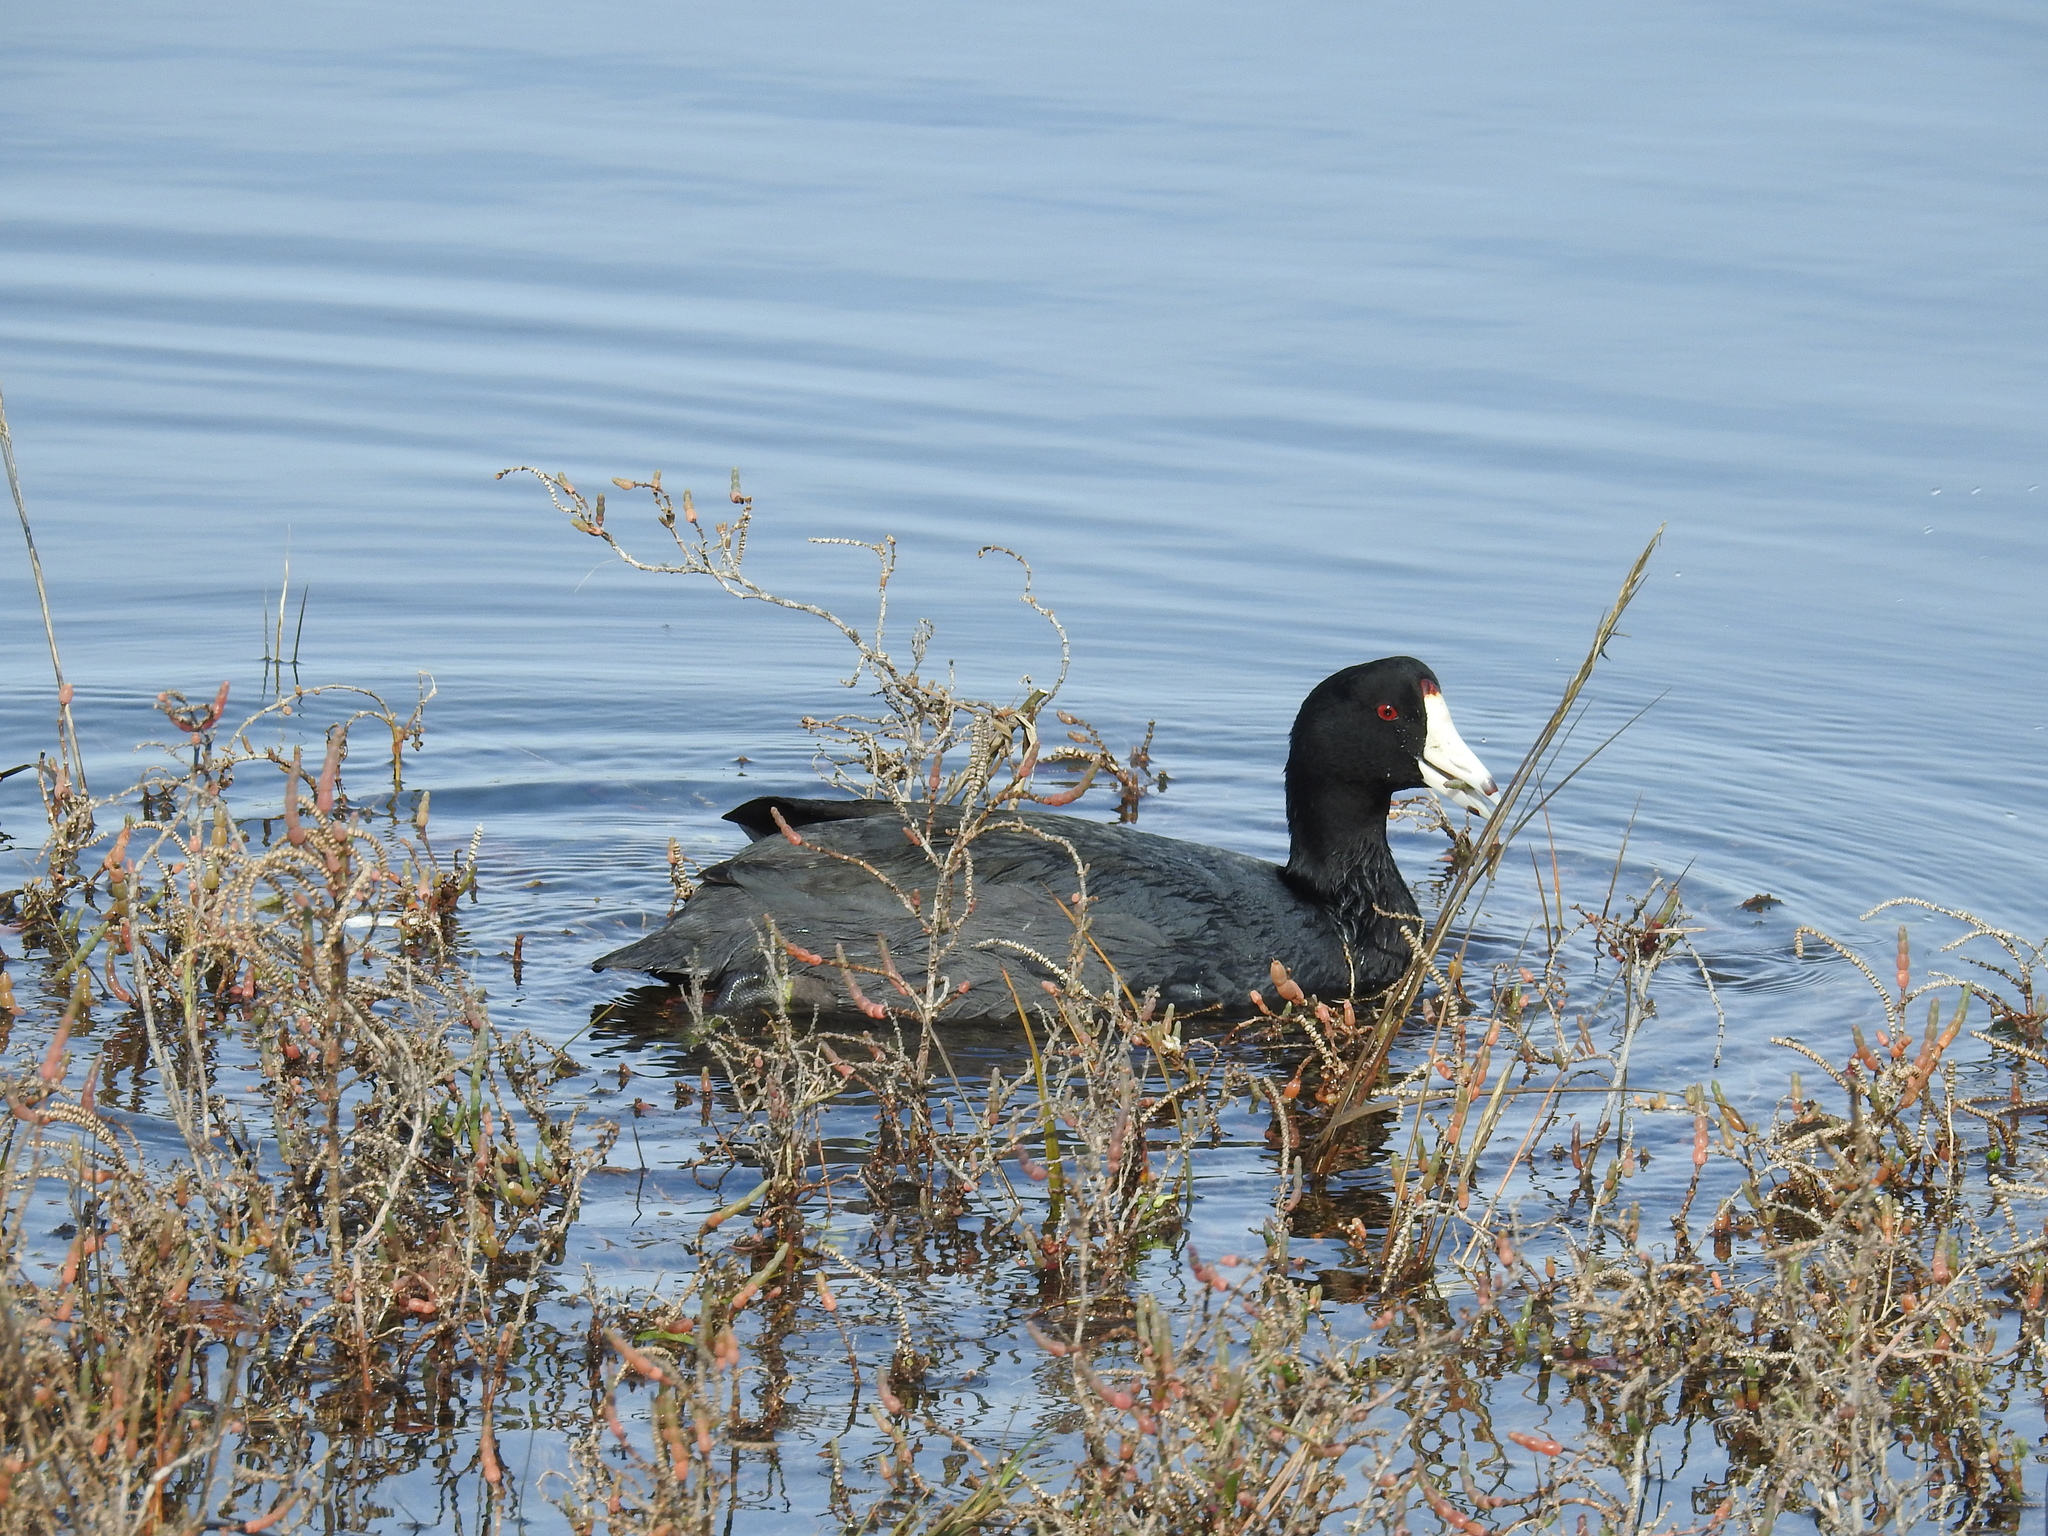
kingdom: Animalia
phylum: Chordata
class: Aves
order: Gruiformes
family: Rallidae
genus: Fulica
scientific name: Fulica americana
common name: American coot
